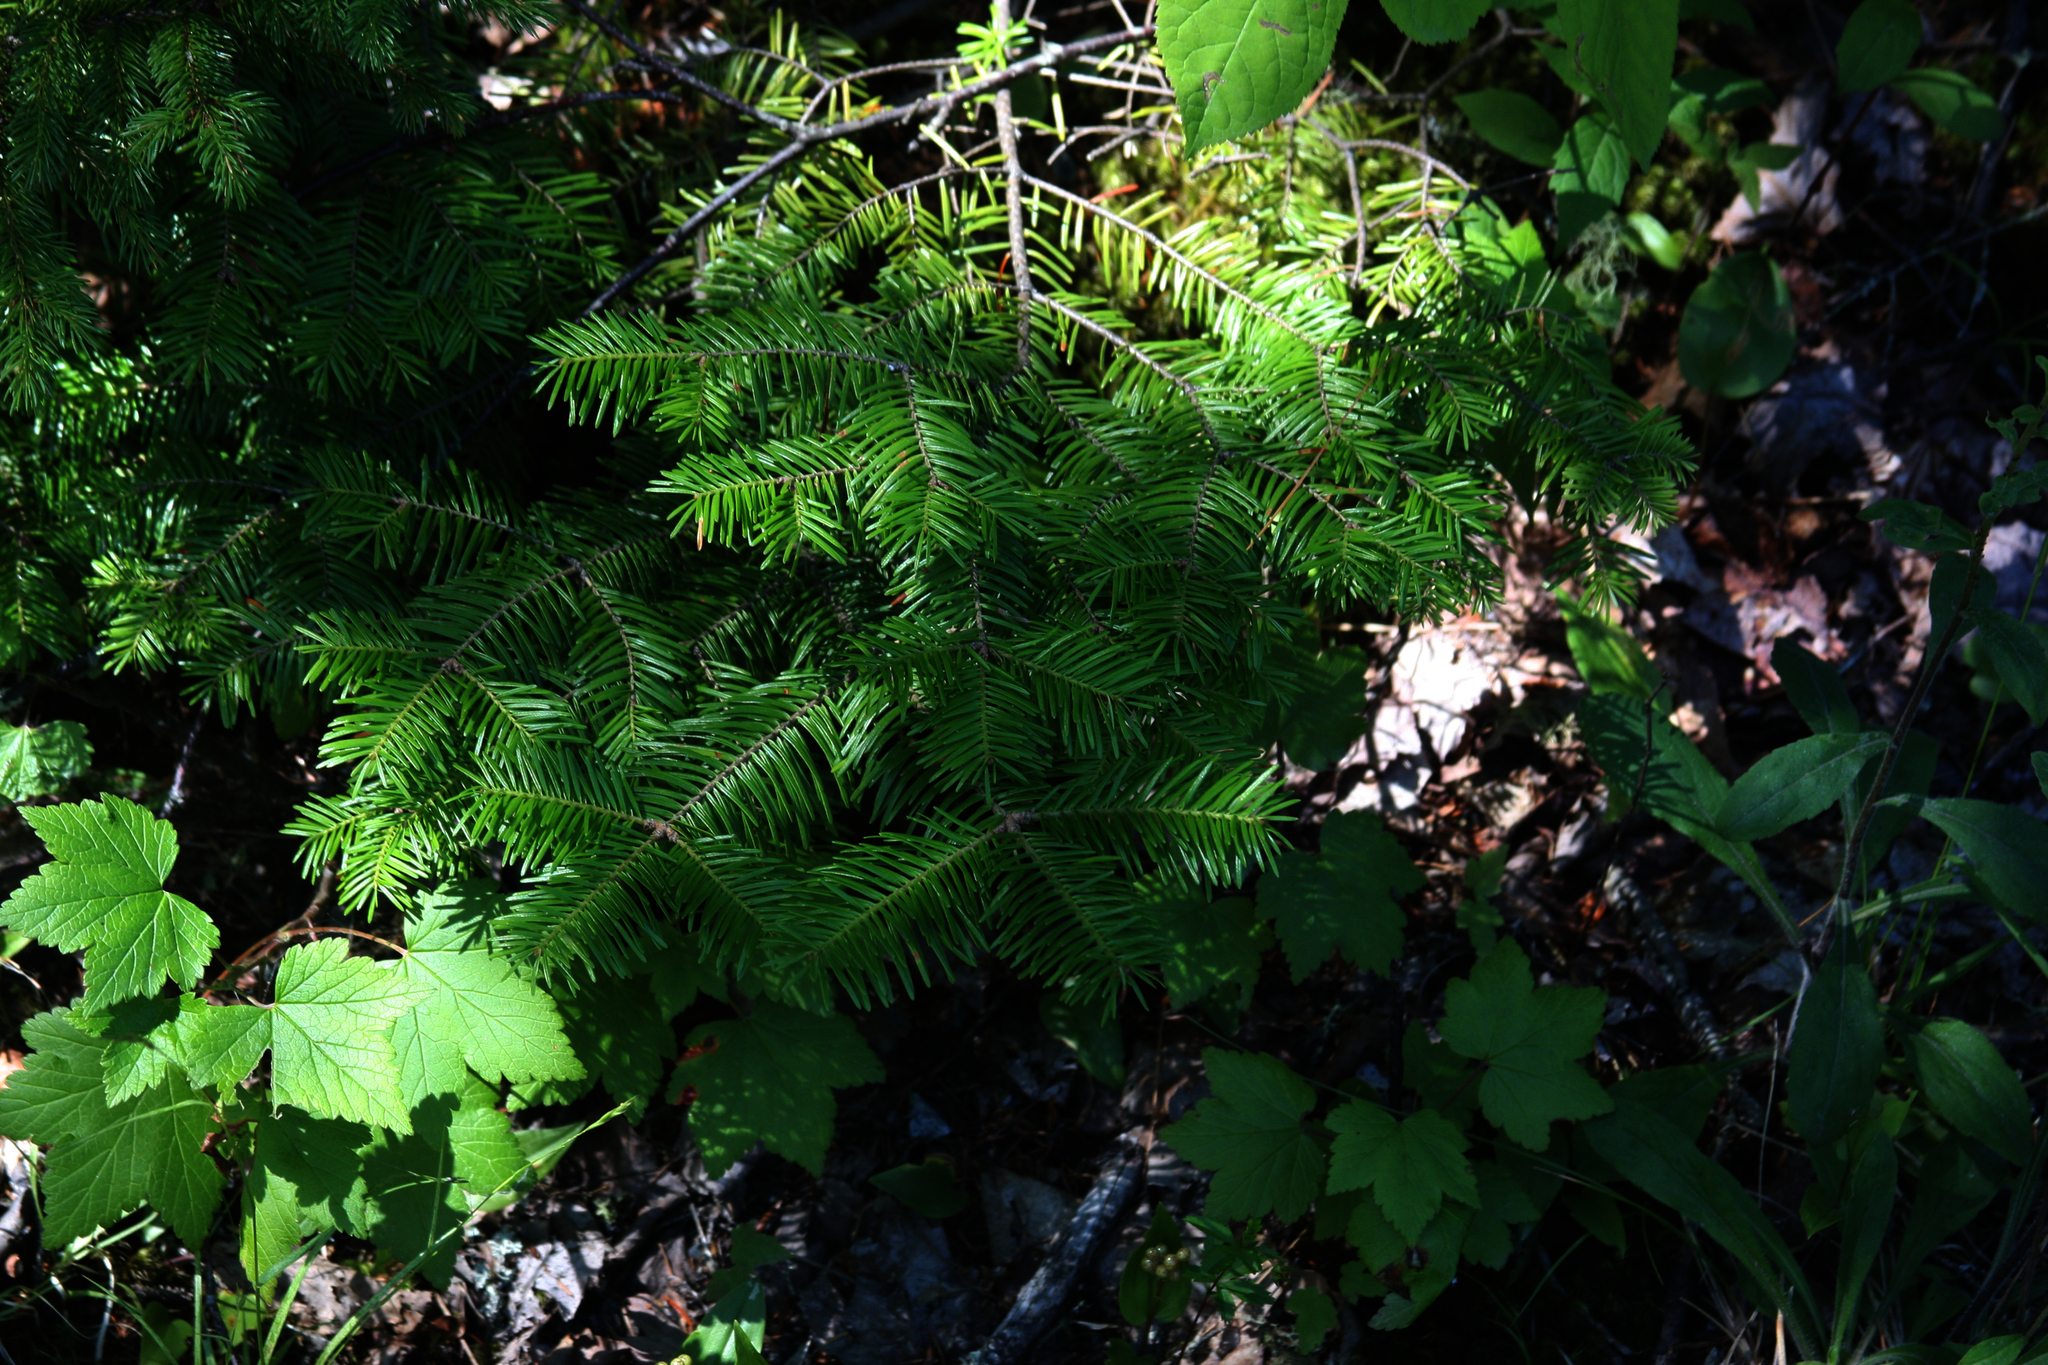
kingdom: Plantae
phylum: Tracheophyta
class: Pinopsida
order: Pinales
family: Pinaceae
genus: Abies
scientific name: Abies balsamea
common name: Balsam fir
